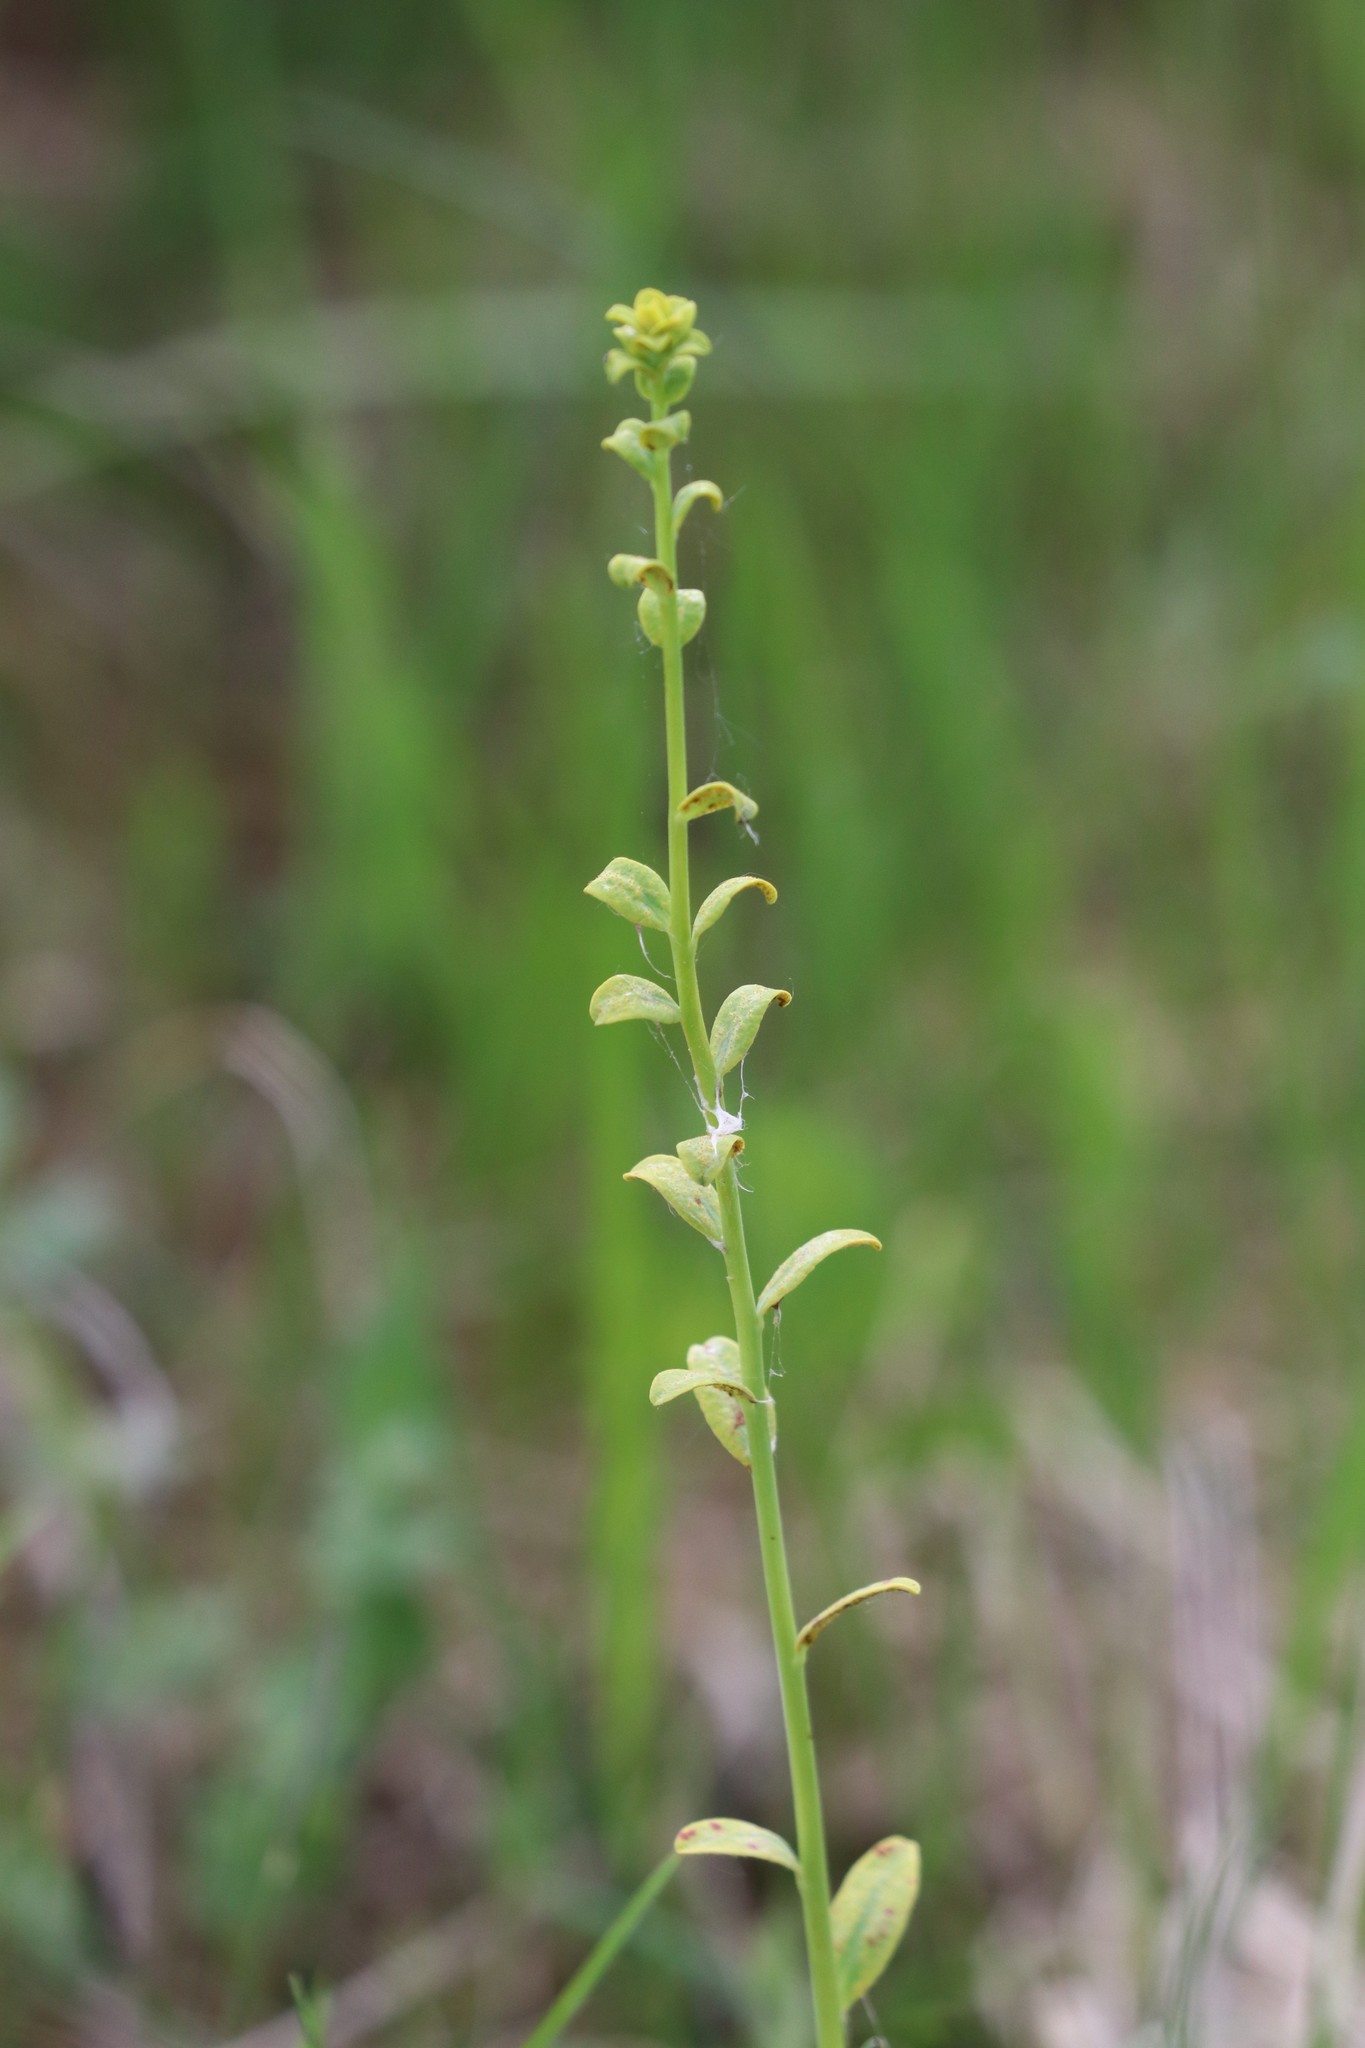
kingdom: Plantae
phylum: Tracheophyta
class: Magnoliopsida
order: Malpighiales
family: Euphorbiaceae
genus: Euphorbia
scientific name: Euphorbia virgata
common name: Leafy spurge
